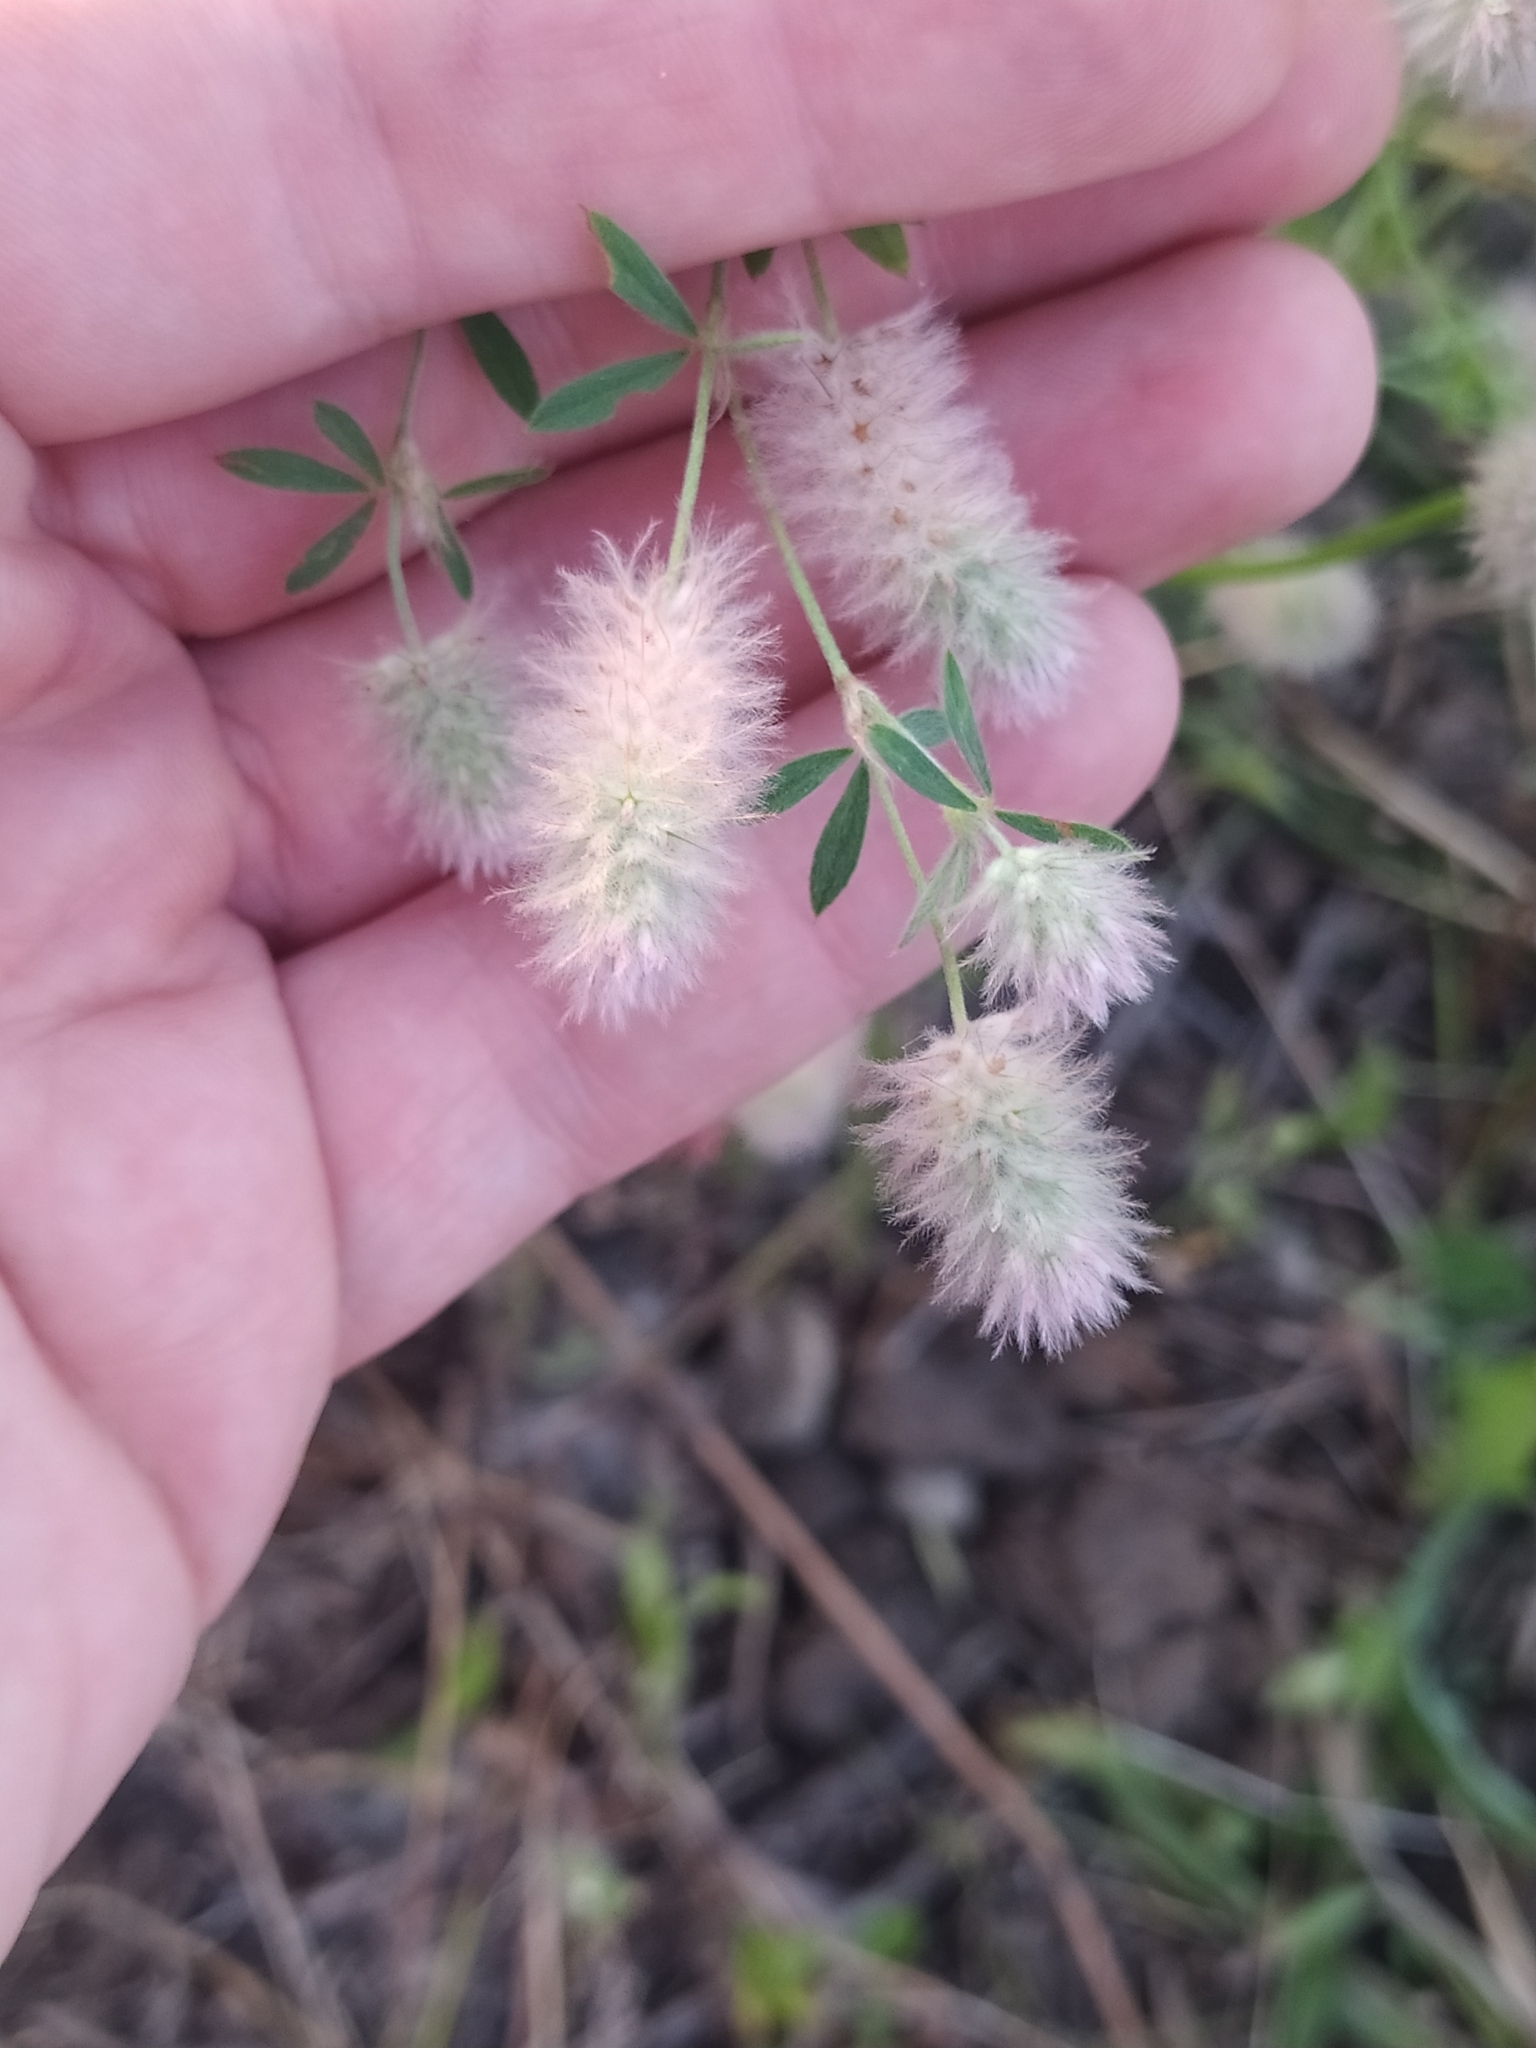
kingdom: Plantae
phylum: Tracheophyta
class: Magnoliopsida
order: Fabales
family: Fabaceae
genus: Trifolium
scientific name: Trifolium arvense
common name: Hare's-foot clover
